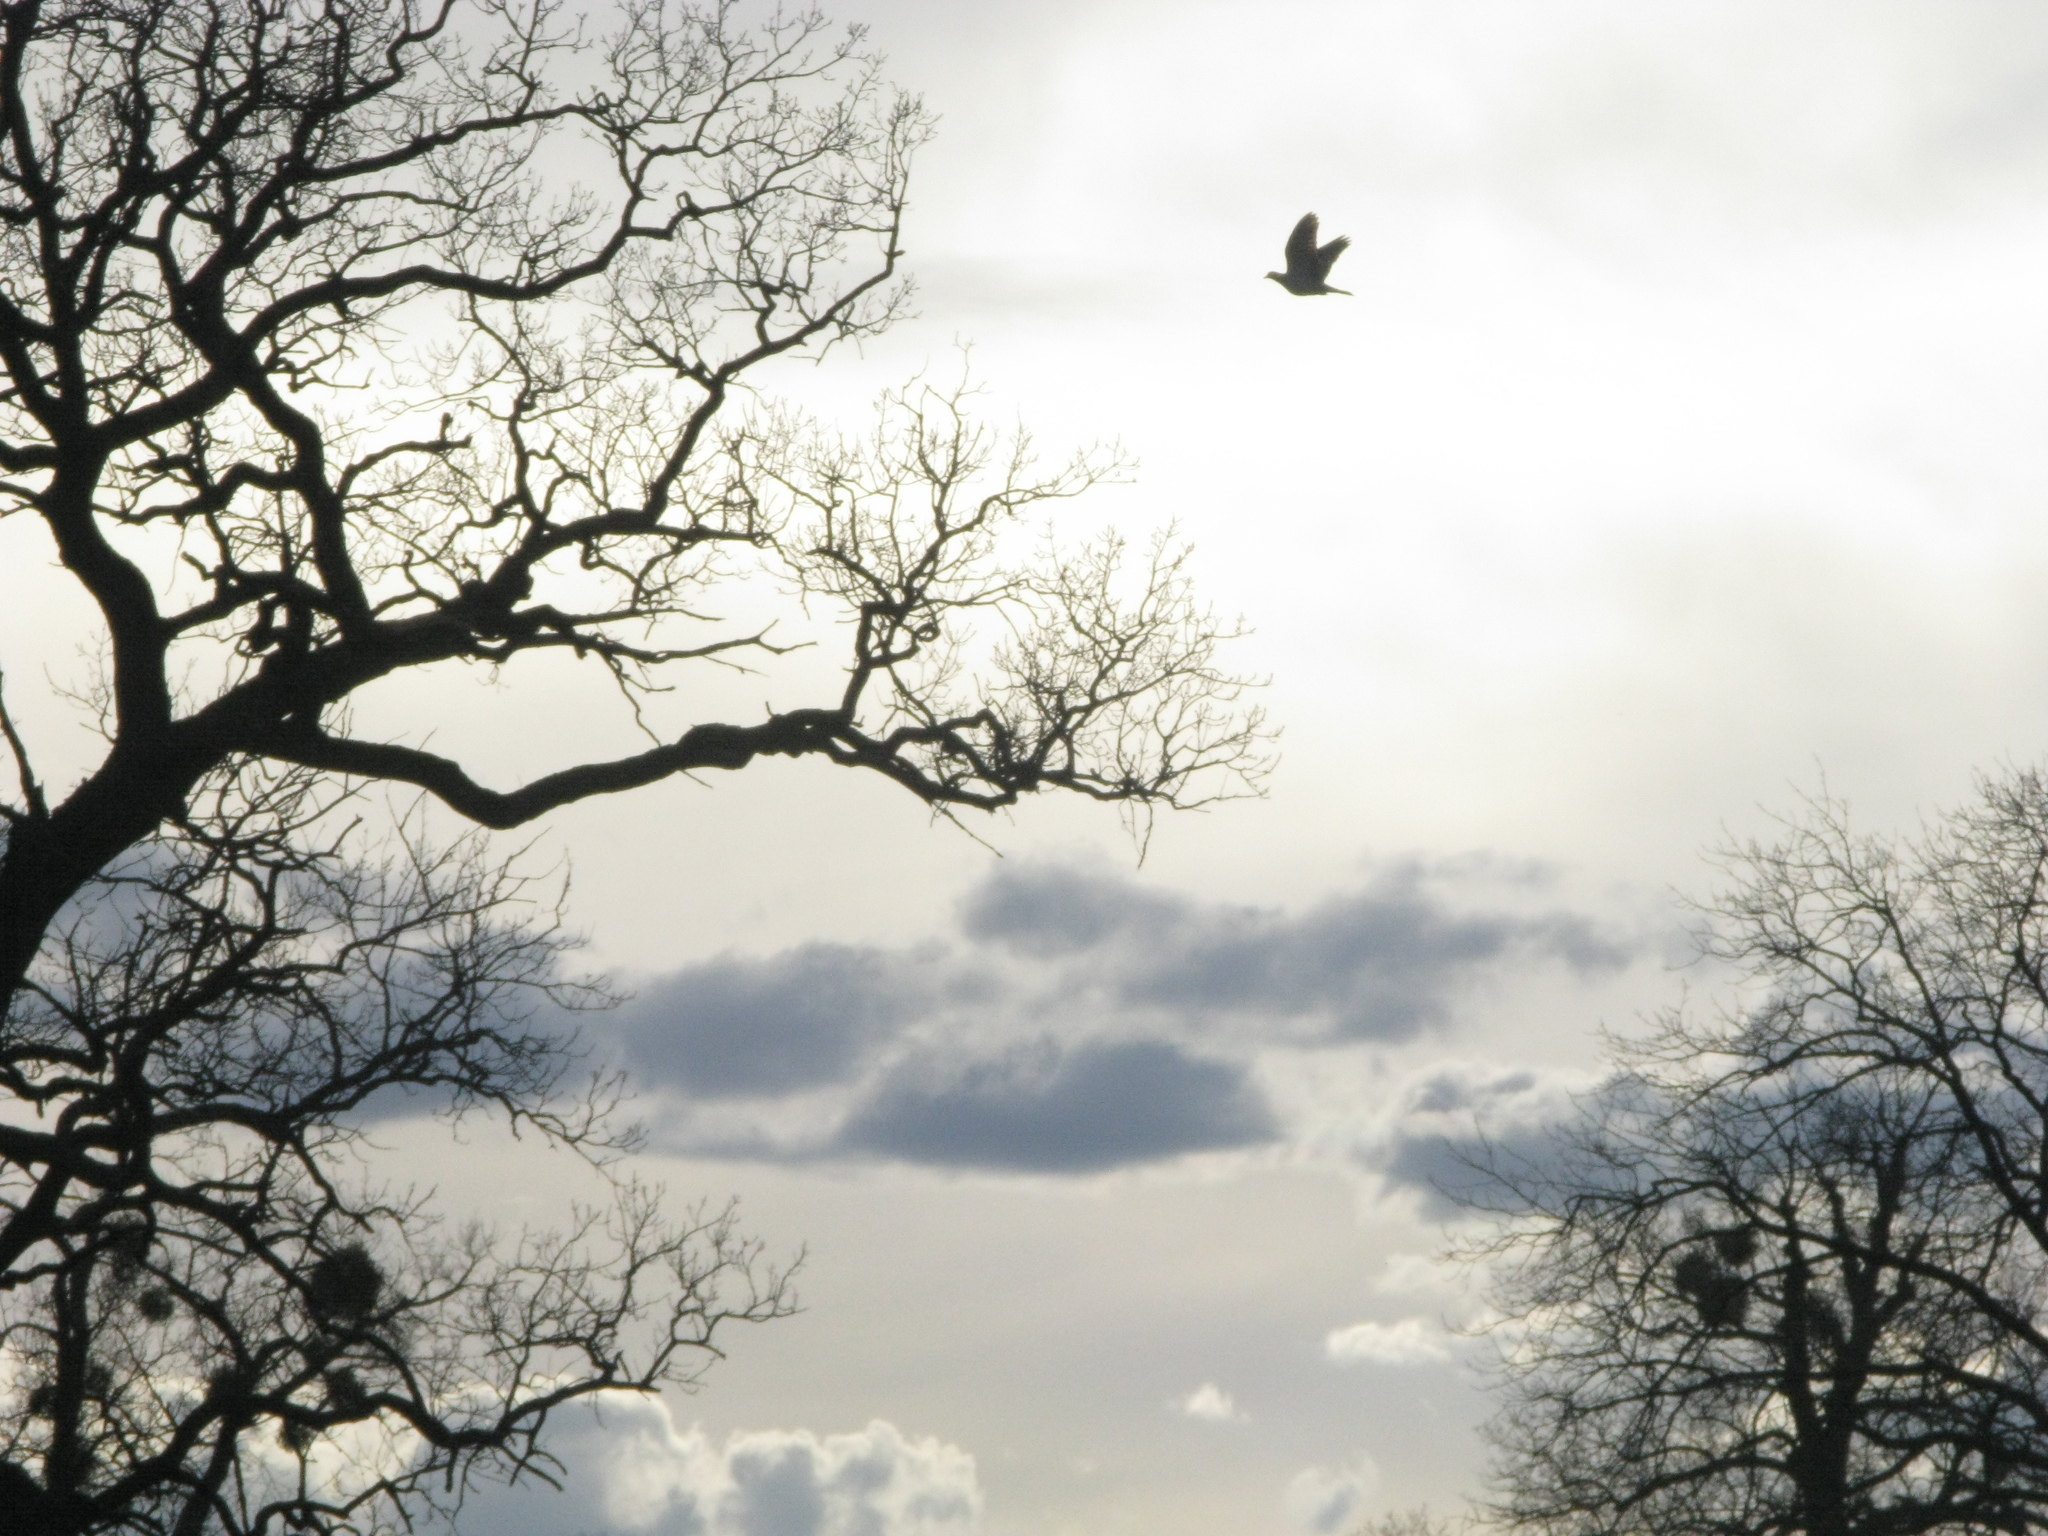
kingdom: Animalia
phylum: Chordata
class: Aves
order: Columbiformes
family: Columbidae
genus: Columba
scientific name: Columba palumbus
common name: Common wood pigeon
